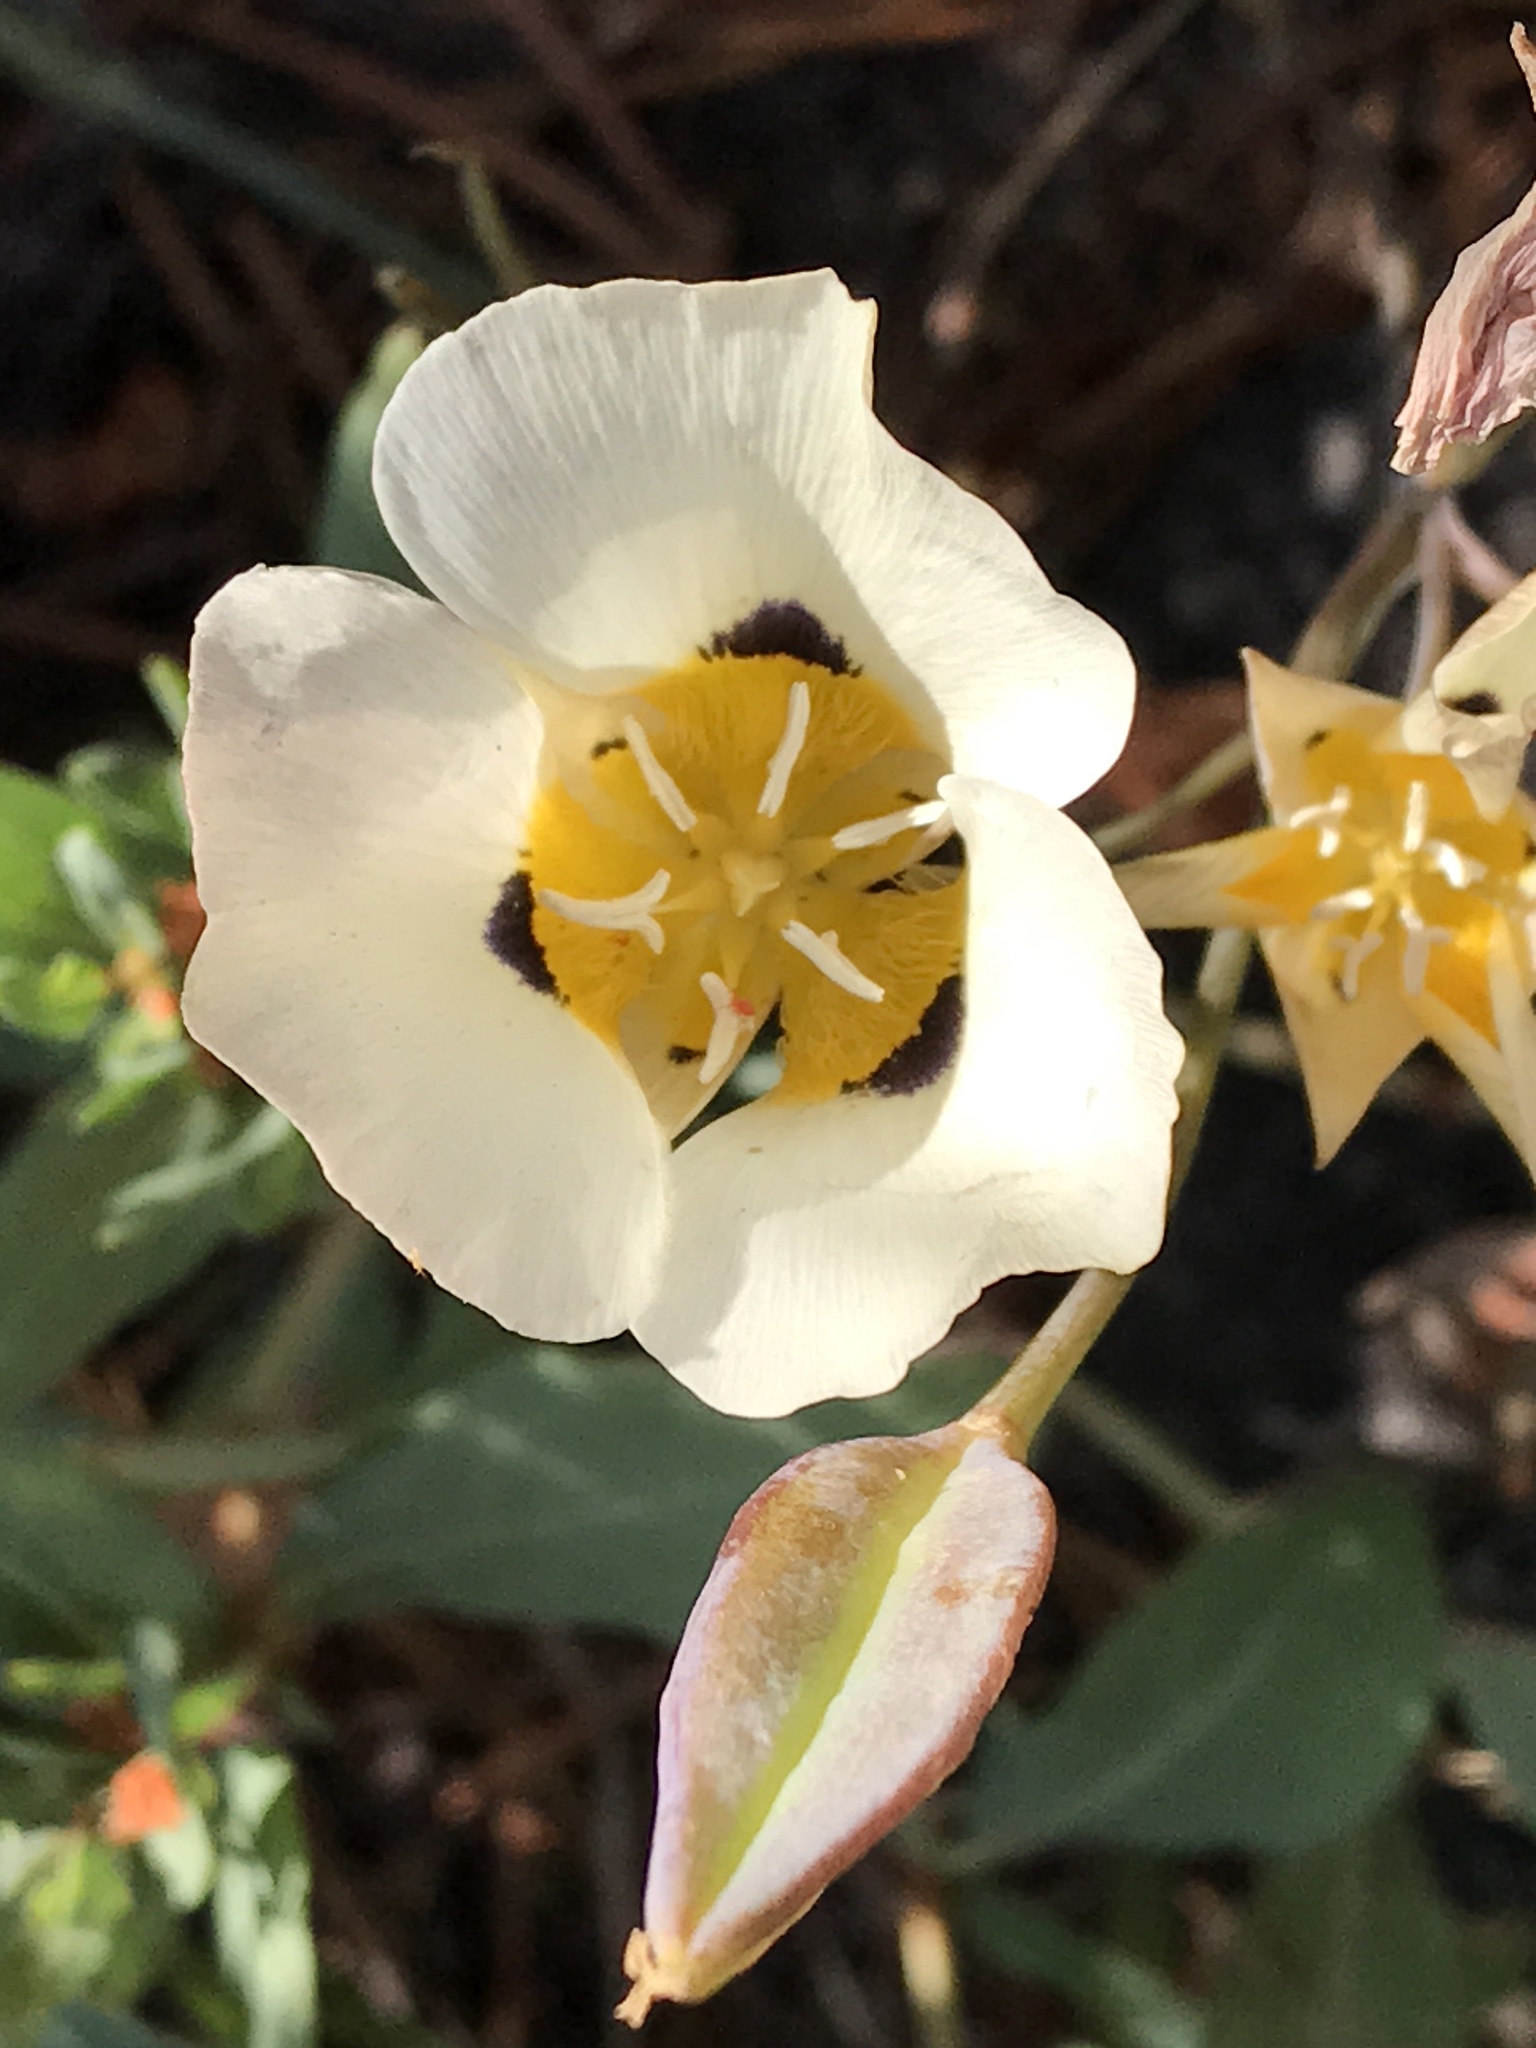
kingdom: Plantae
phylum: Tracheophyta
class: Liliopsida
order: Liliales
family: Liliaceae
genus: Calochortus
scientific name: Calochortus leichtlinii
